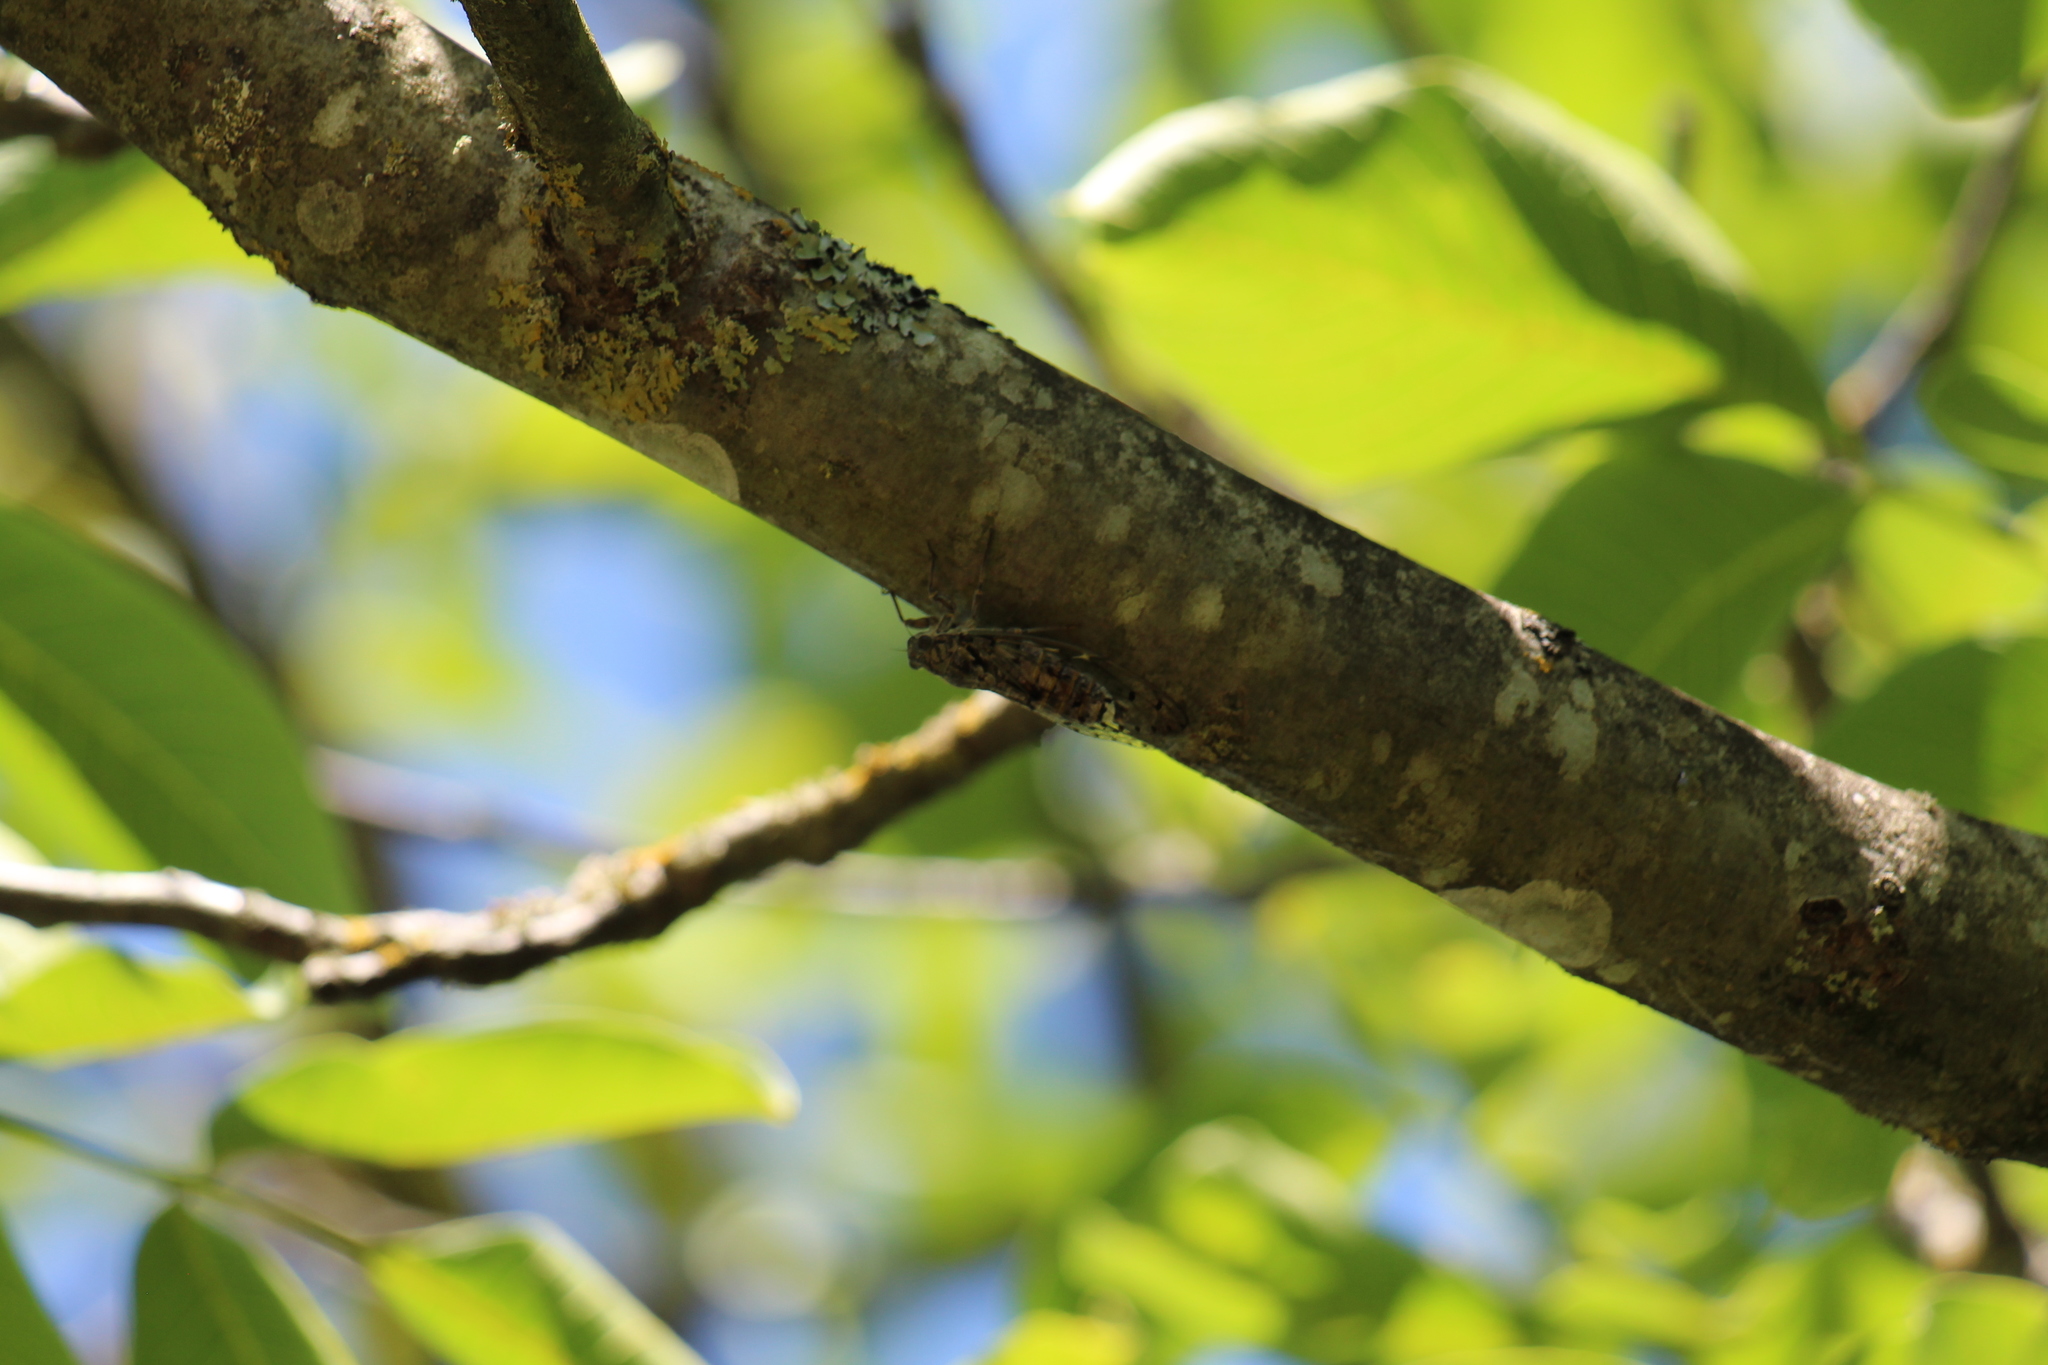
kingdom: Animalia
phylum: Arthropoda
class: Insecta
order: Hemiptera
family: Cicadidae
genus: Cicada
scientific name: Cicada orni
